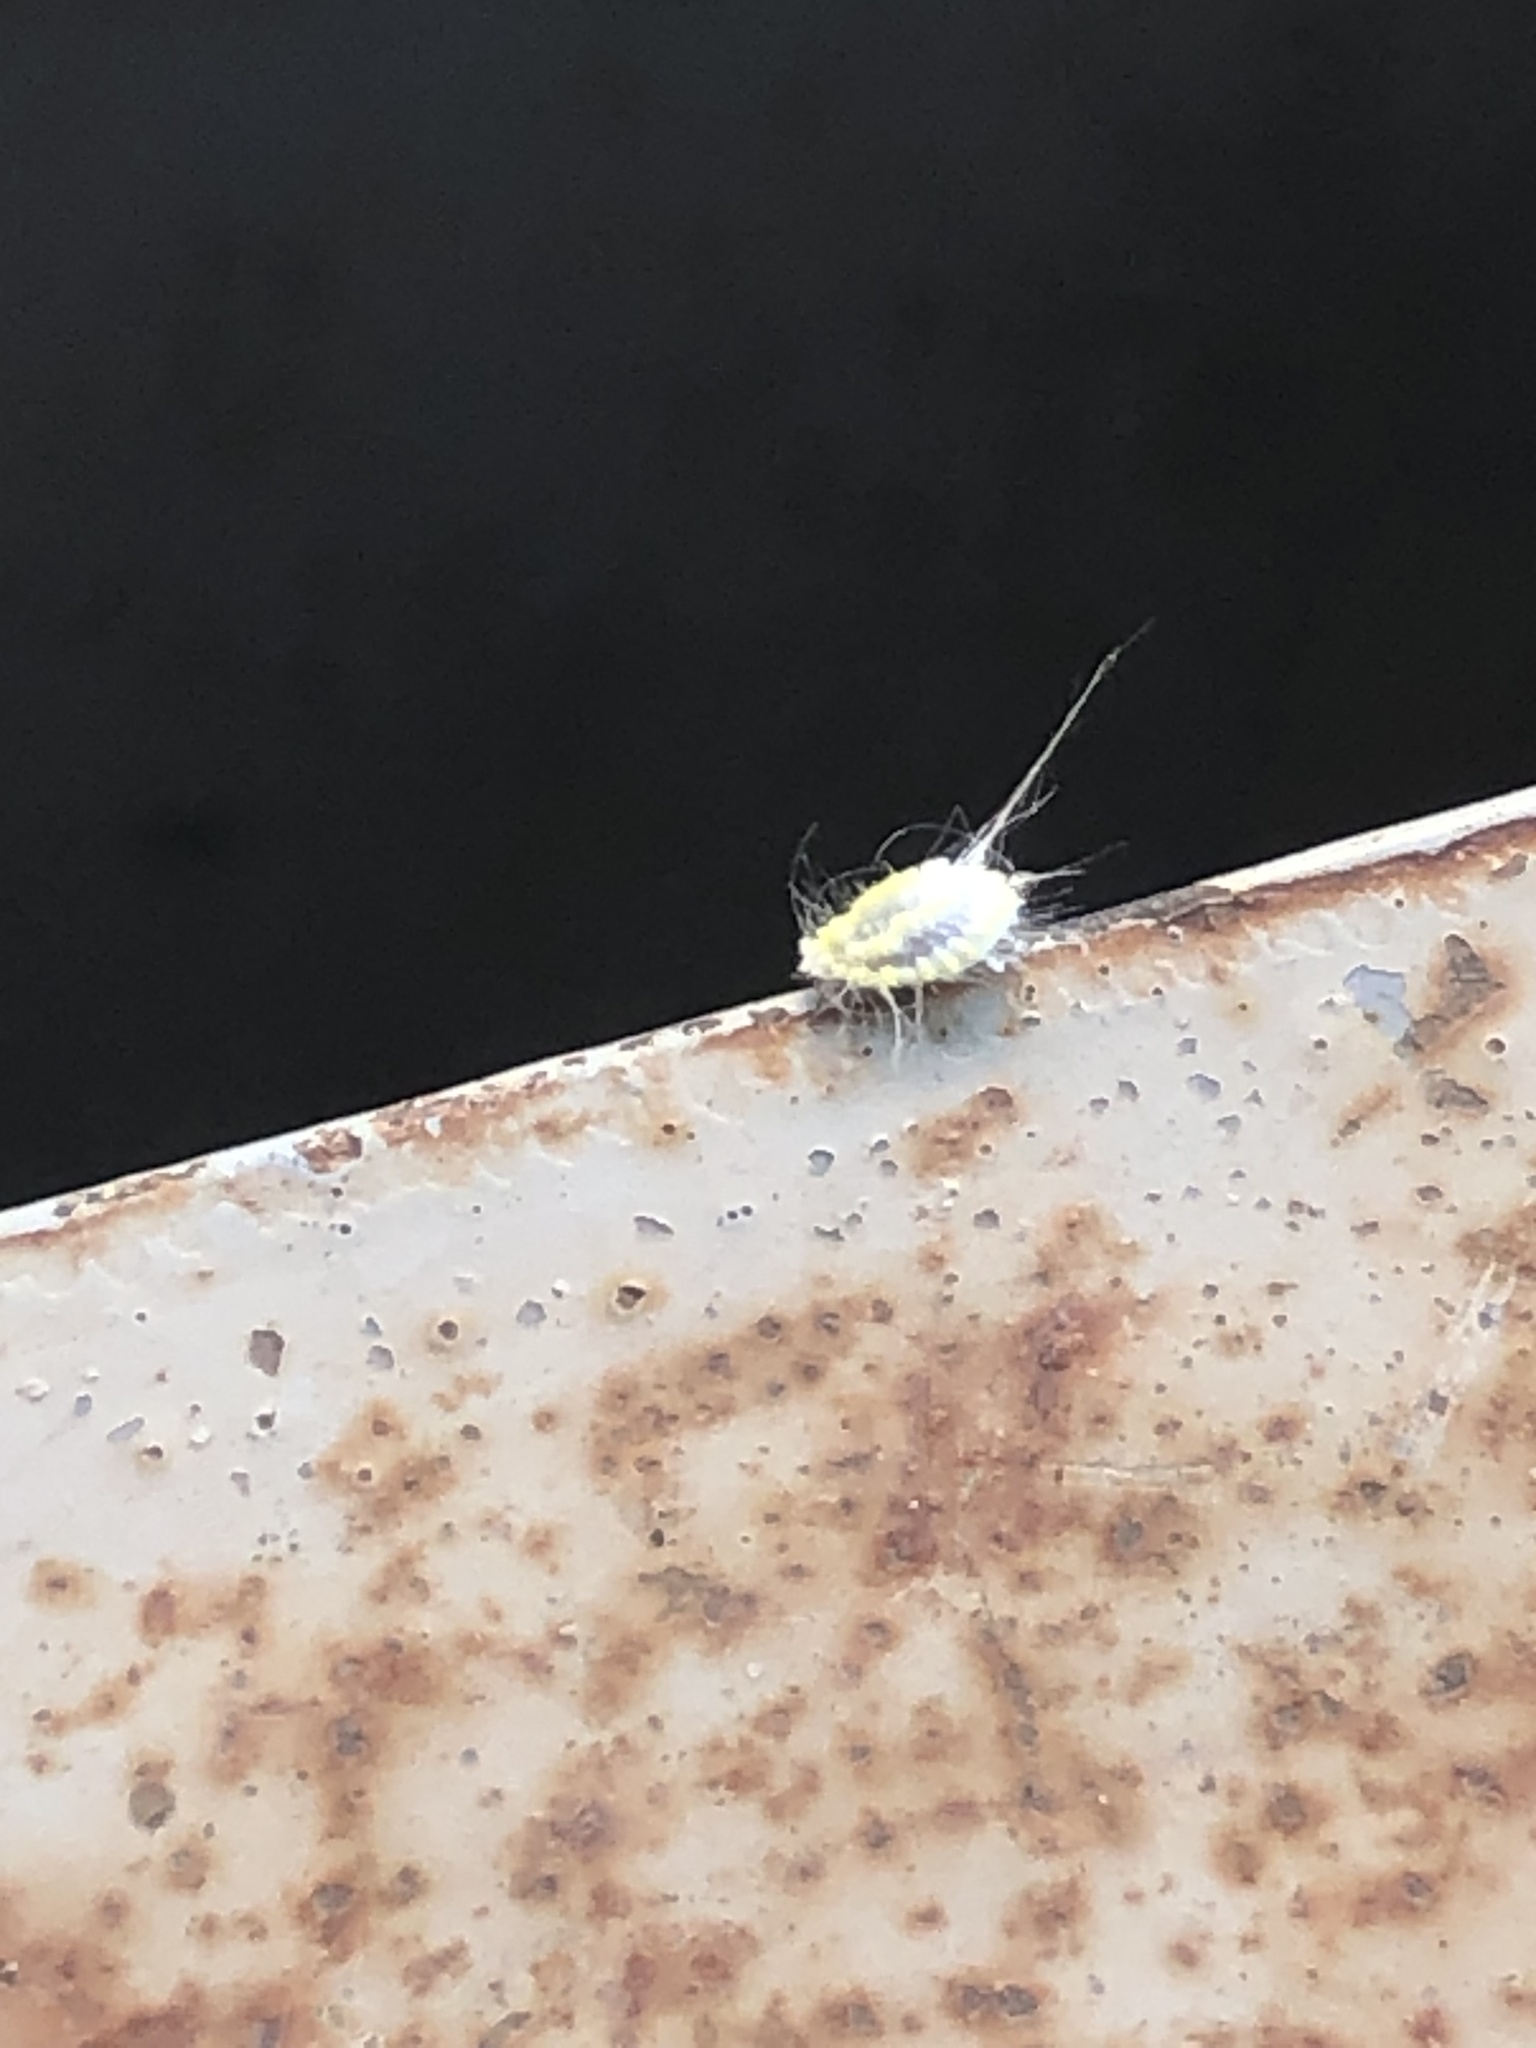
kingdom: Animalia
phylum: Arthropoda
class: Insecta
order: Hemiptera
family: Margarodidae
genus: Icerya
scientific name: Icerya seychellarum
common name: Iceplant scale
